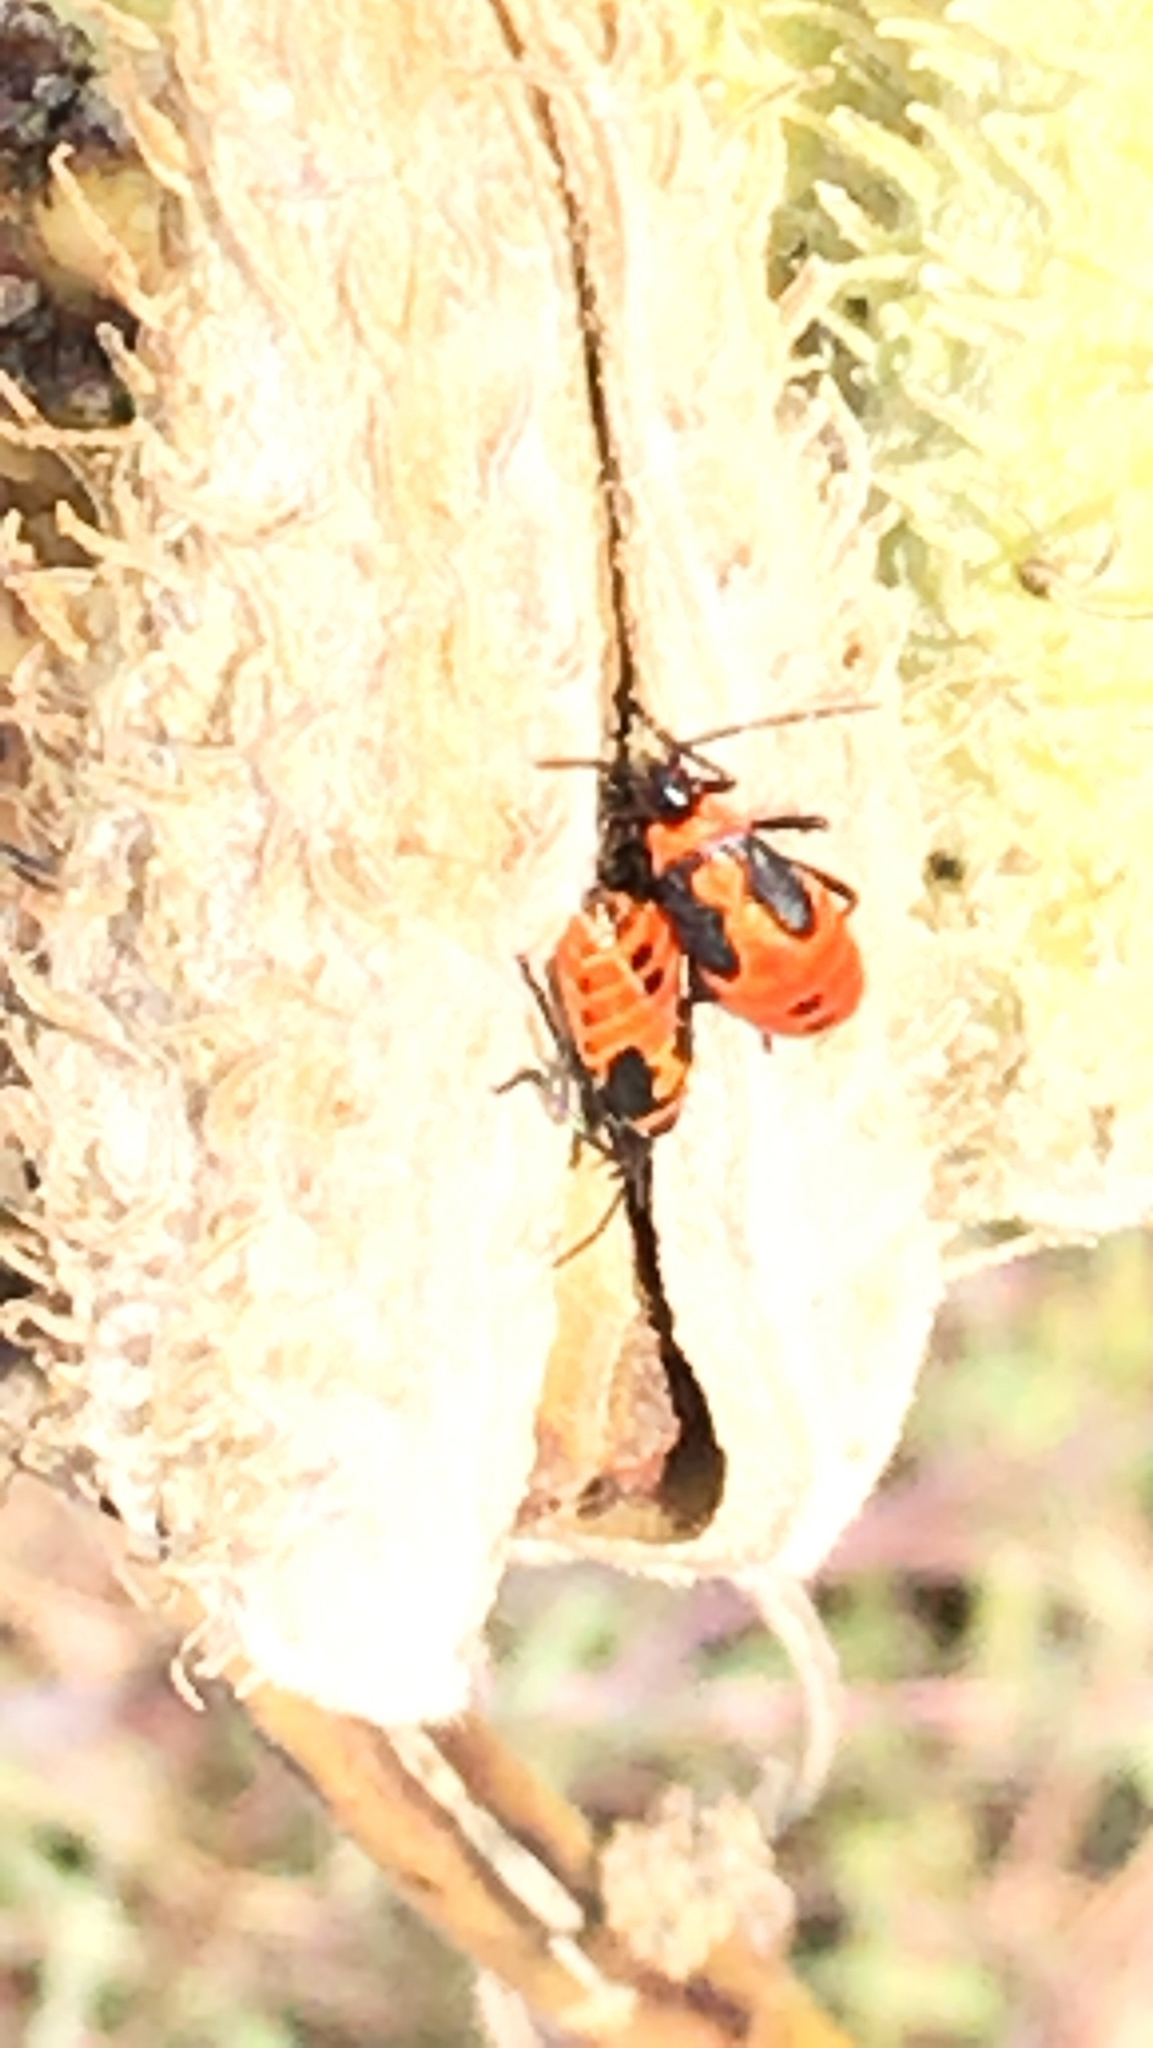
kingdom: Animalia
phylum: Arthropoda
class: Insecta
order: Hemiptera
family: Lygaeidae
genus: Oncopeltus
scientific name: Oncopeltus fasciatus
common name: Large milkweed bug
